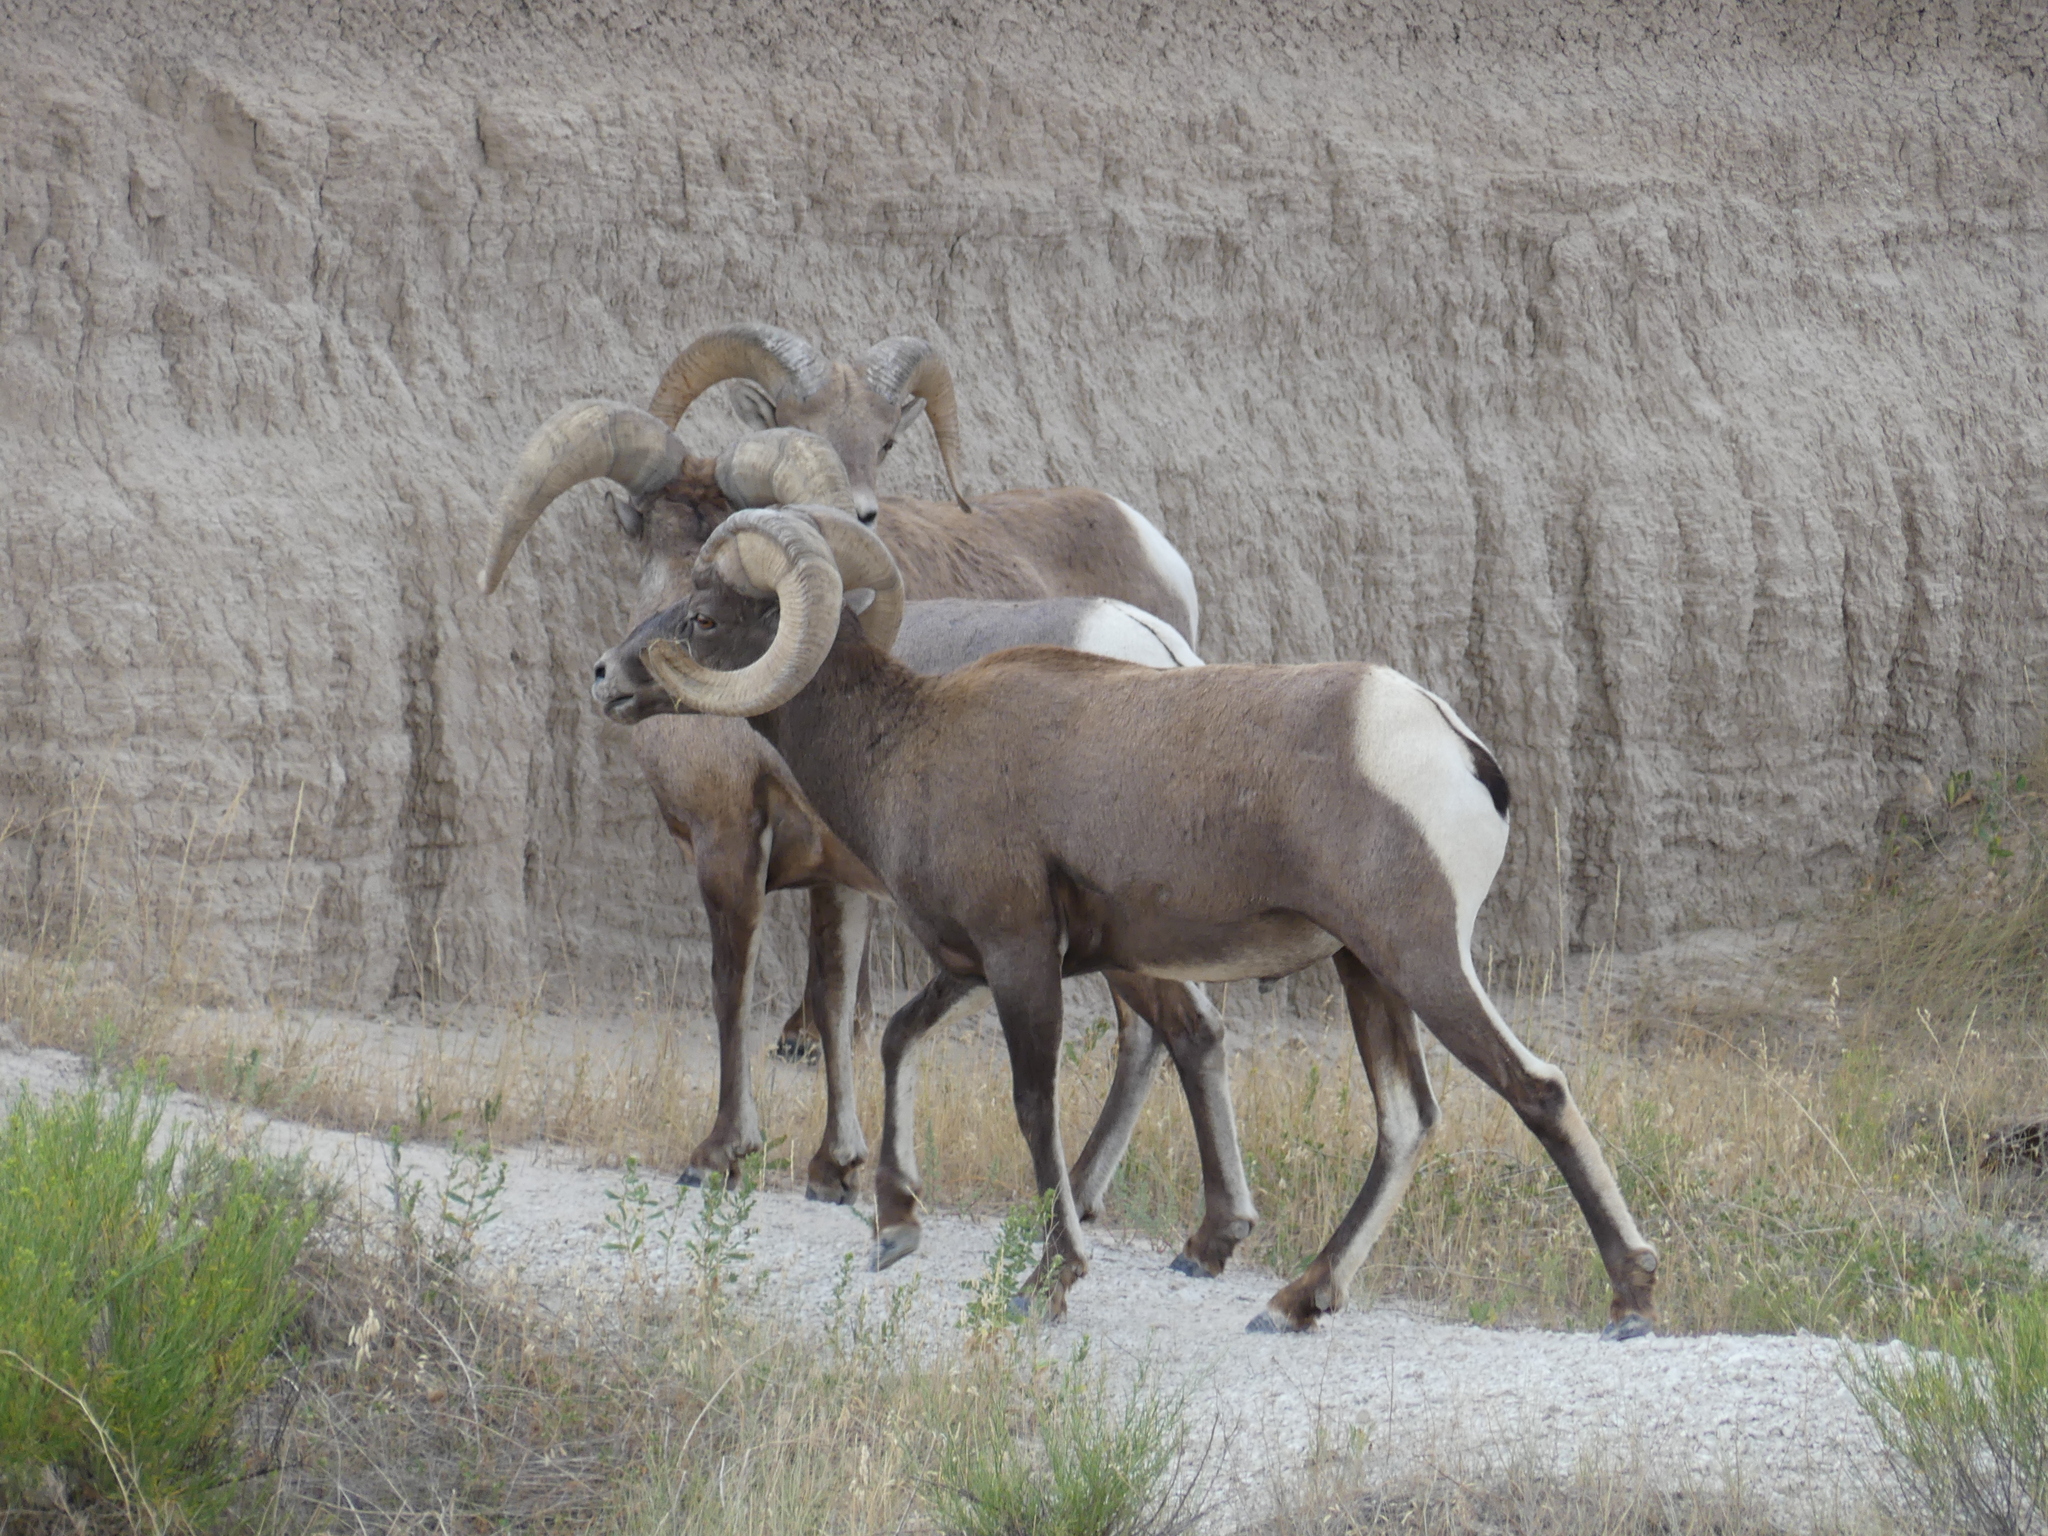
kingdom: Animalia
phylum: Chordata
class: Mammalia
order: Artiodactyla
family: Bovidae
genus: Ovis
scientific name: Ovis canadensis
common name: Bighorn sheep
